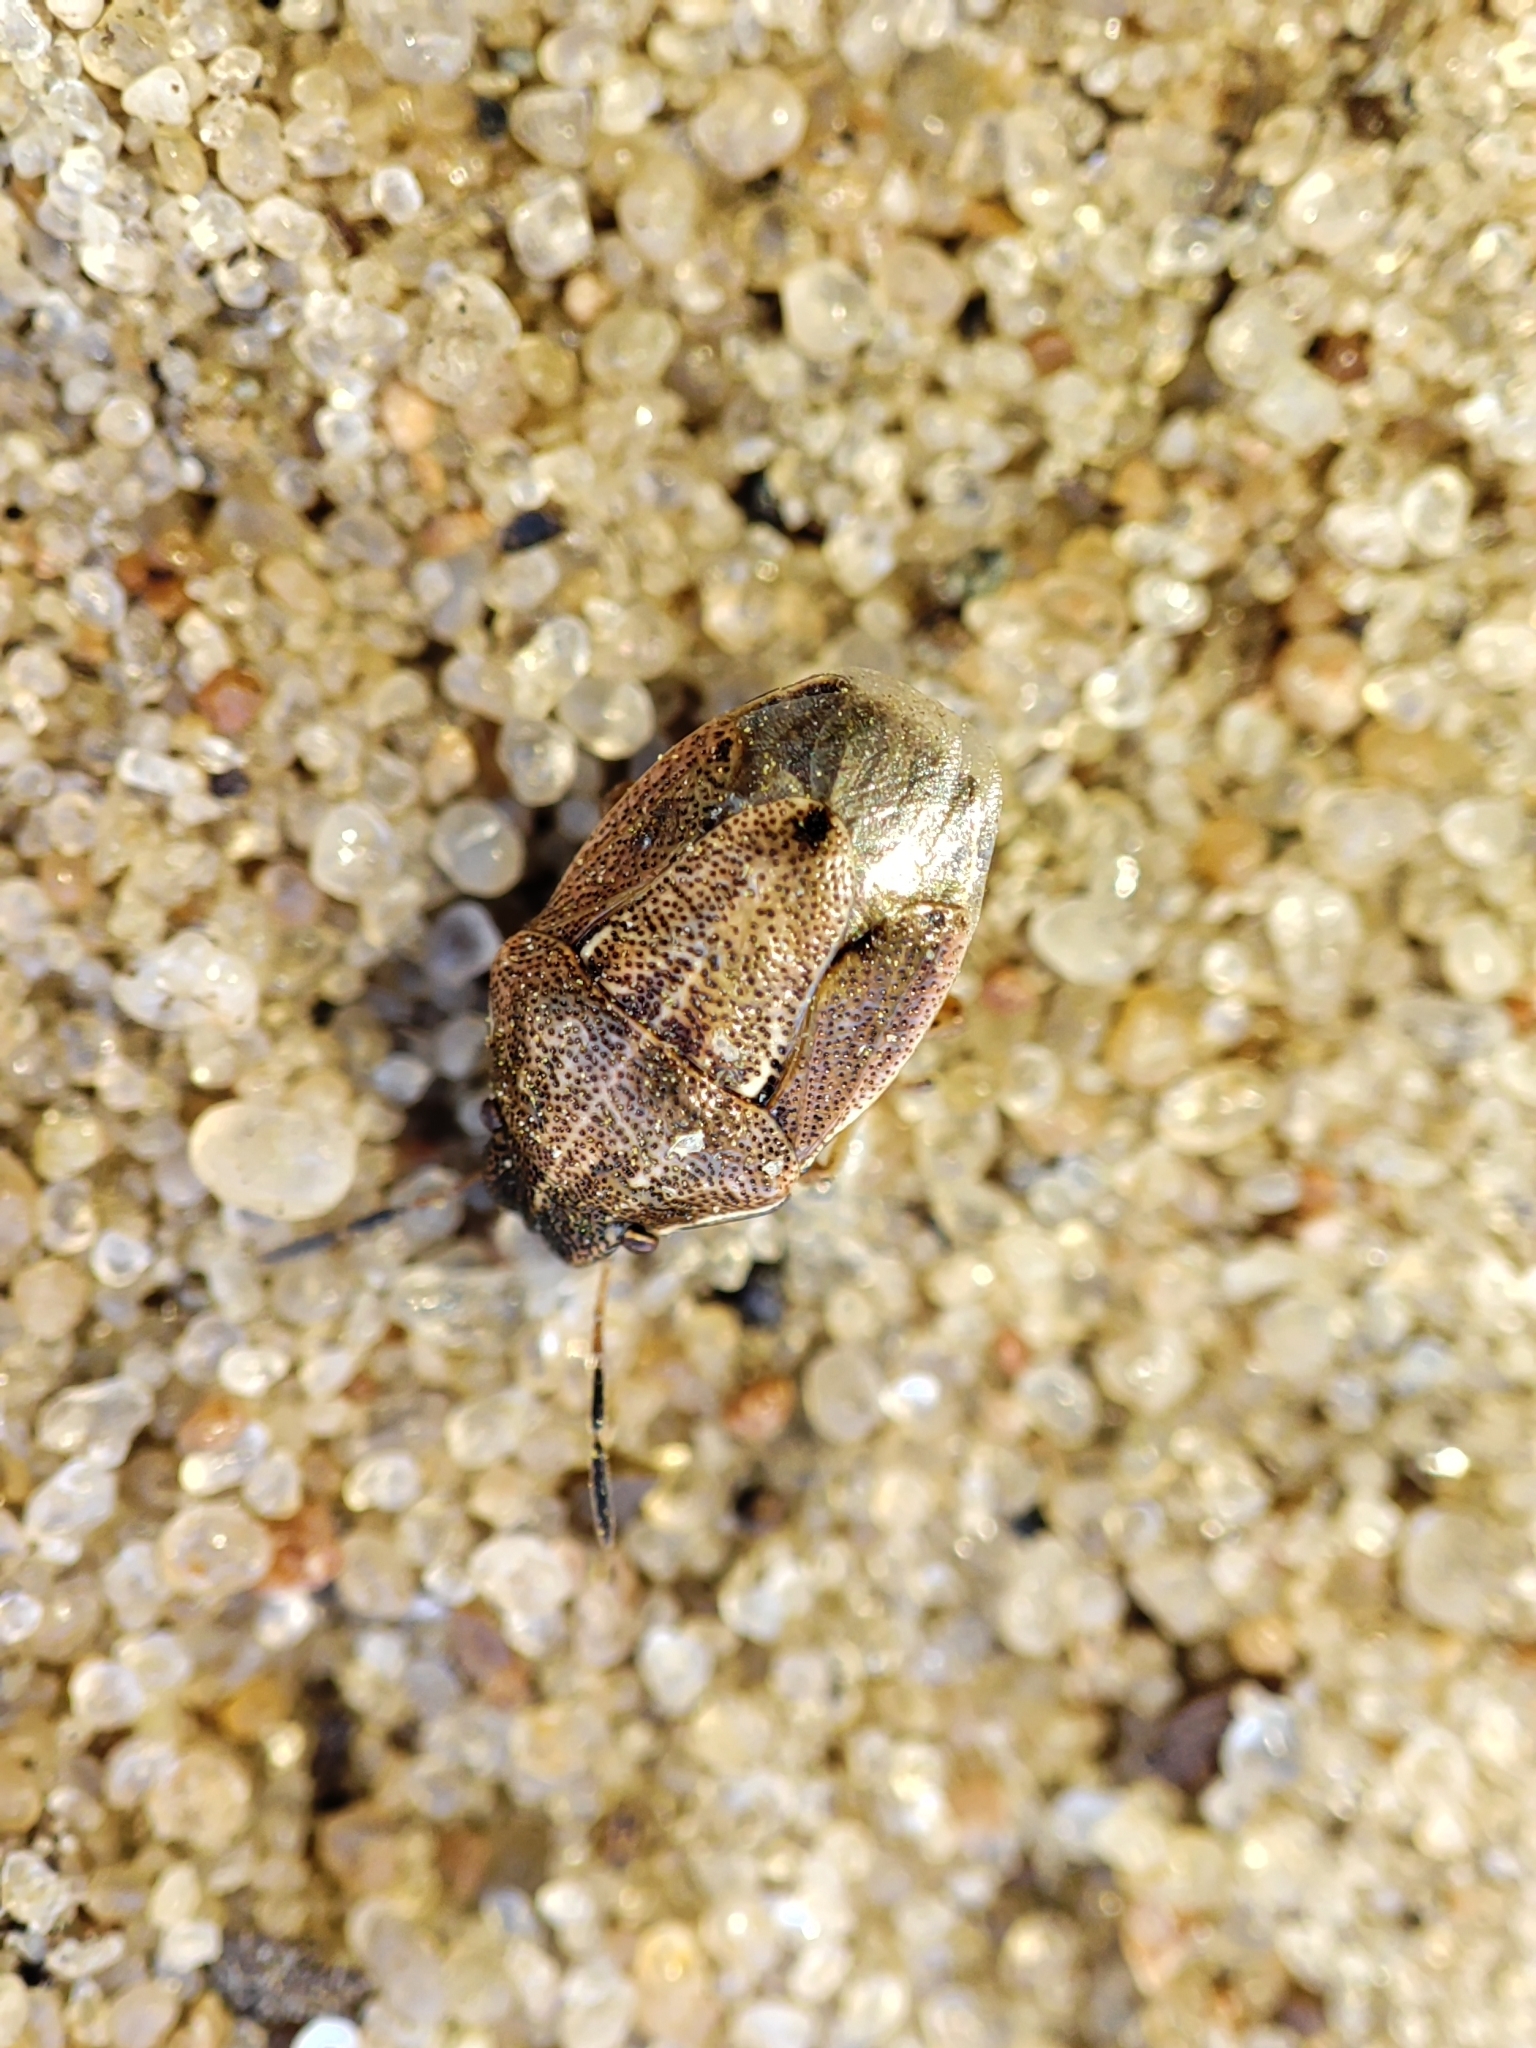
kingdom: Animalia
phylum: Arthropoda
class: Insecta
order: Hemiptera
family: Pentatomidae
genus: Neottiglossa
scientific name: Neottiglossa pusilla
